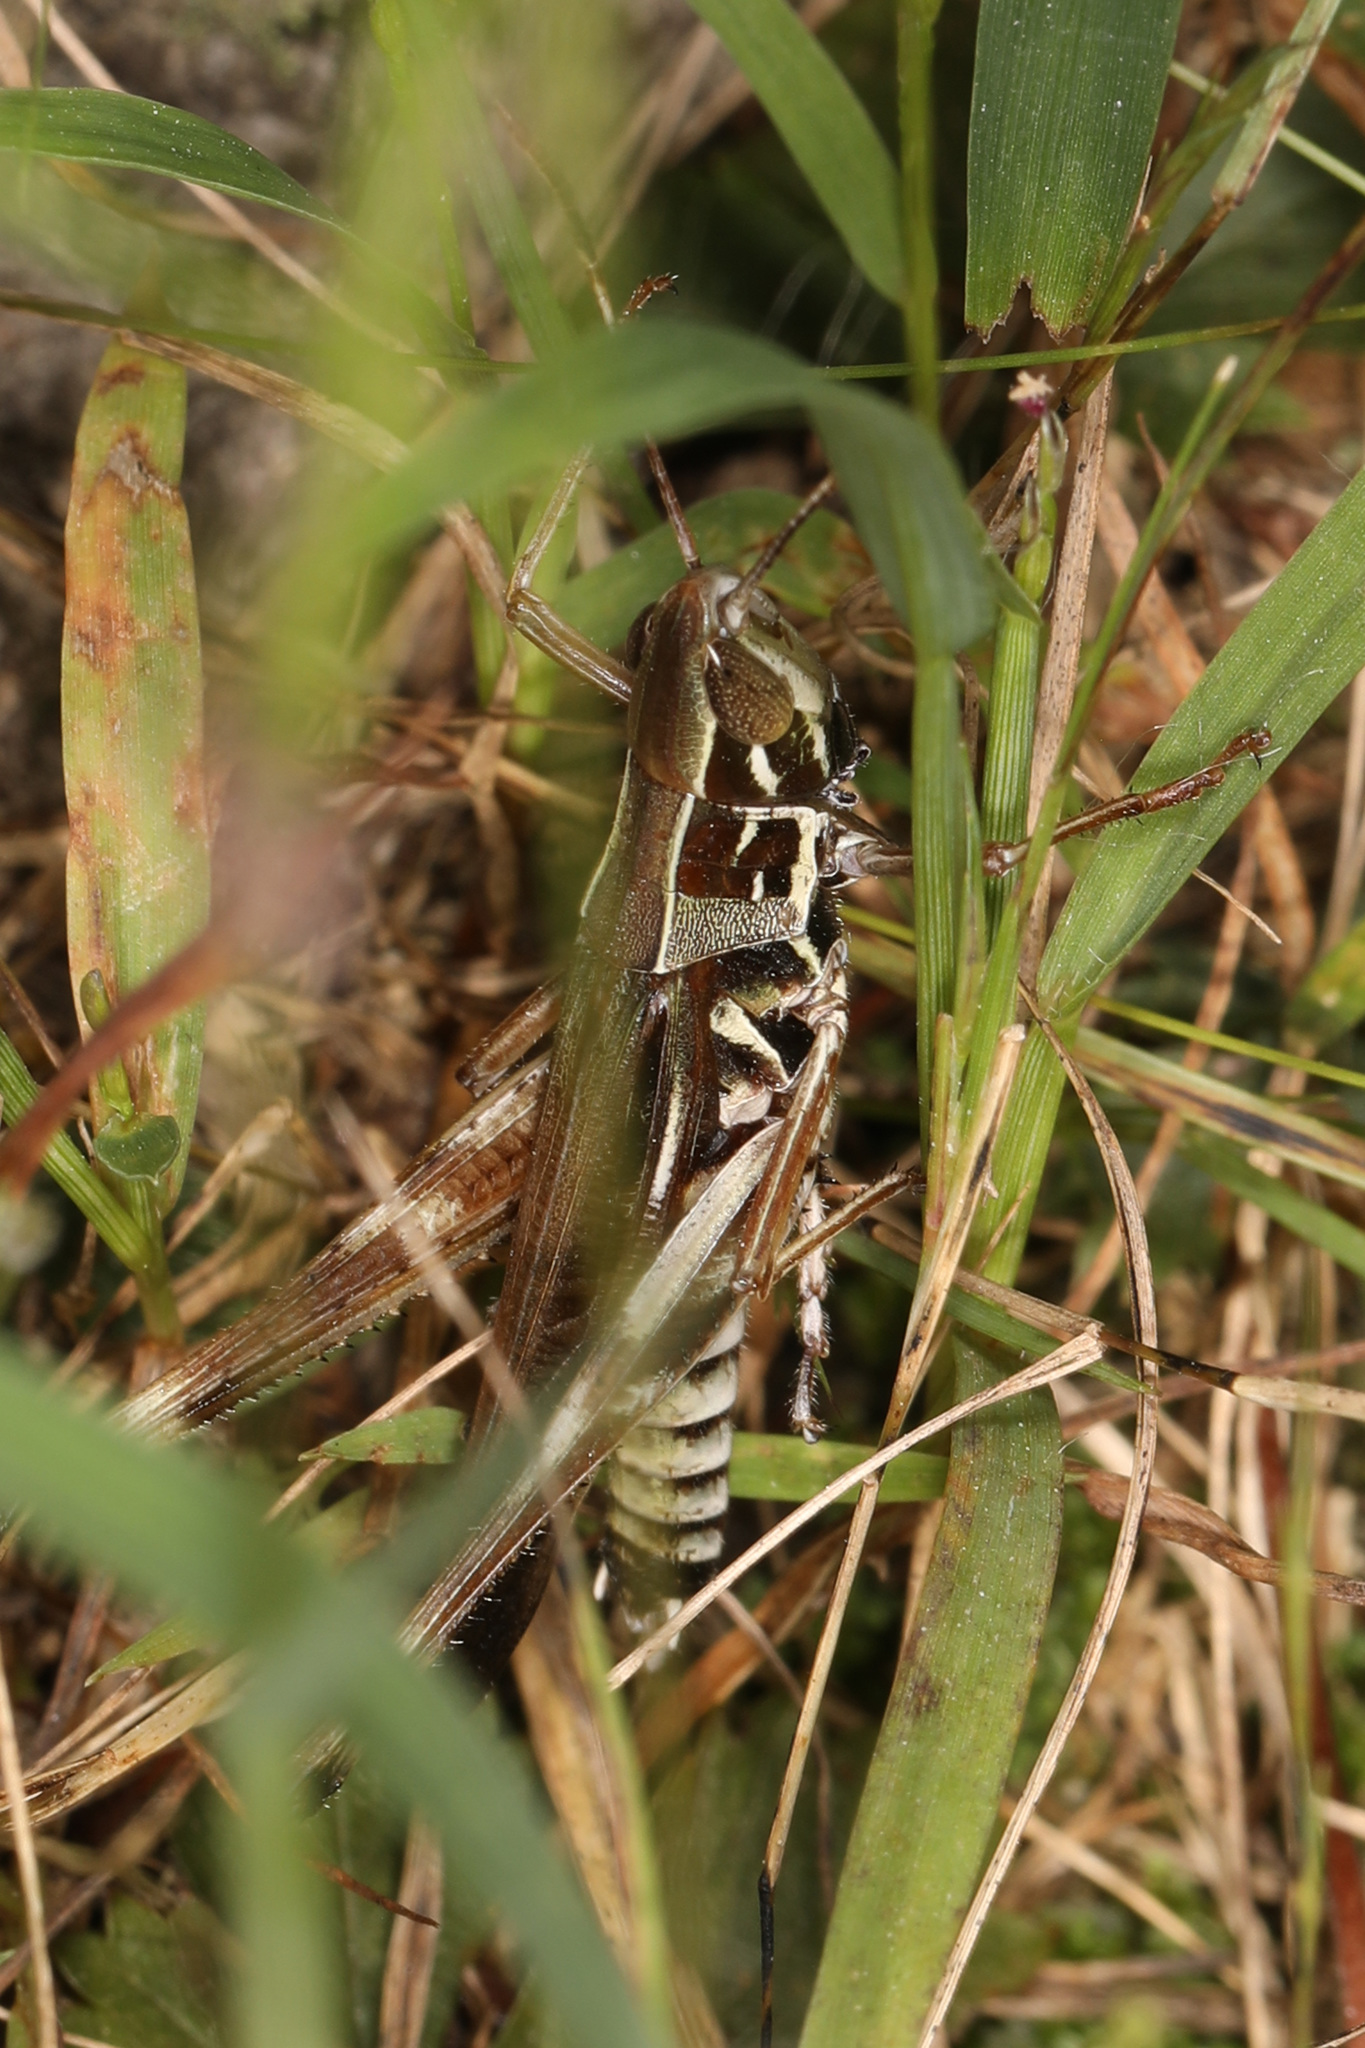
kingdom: Animalia
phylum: Arthropoda
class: Insecta
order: Orthoptera
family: Acrididae
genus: Syrbula
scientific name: Syrbula admirabilis
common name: Handsome grasshopper
